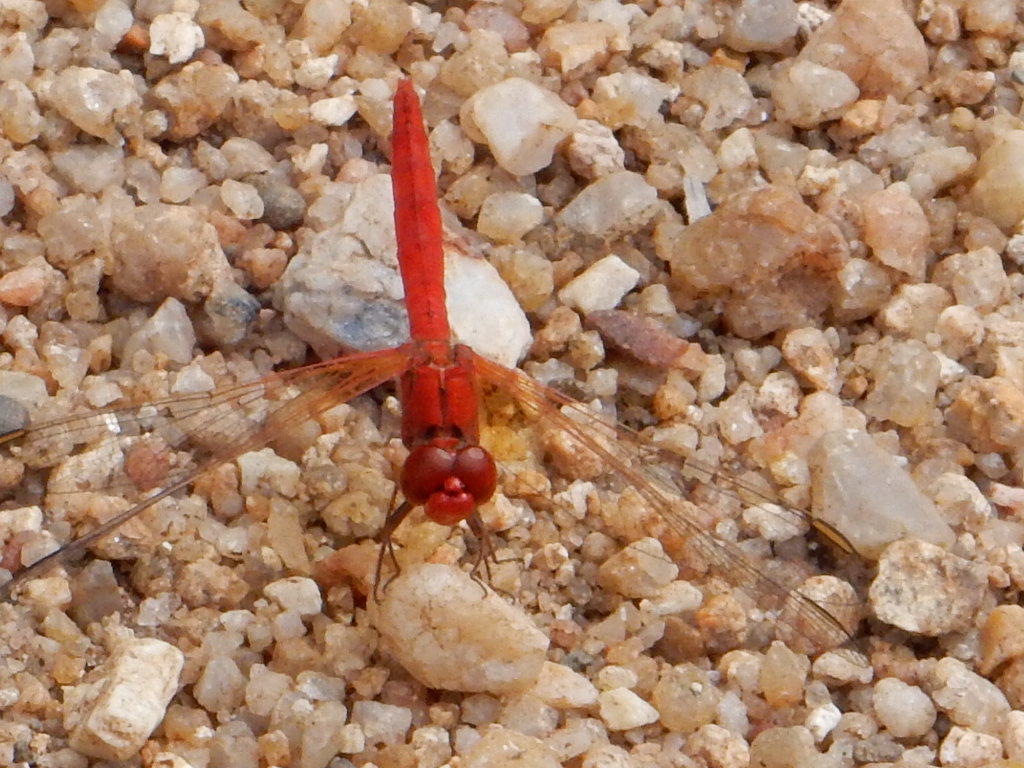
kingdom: Animalia
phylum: Arthropoda
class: Insecta
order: Odonata
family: Libellulidae
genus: Diplacodes
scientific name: Diplacodes haematodes
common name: Scarlet percher
